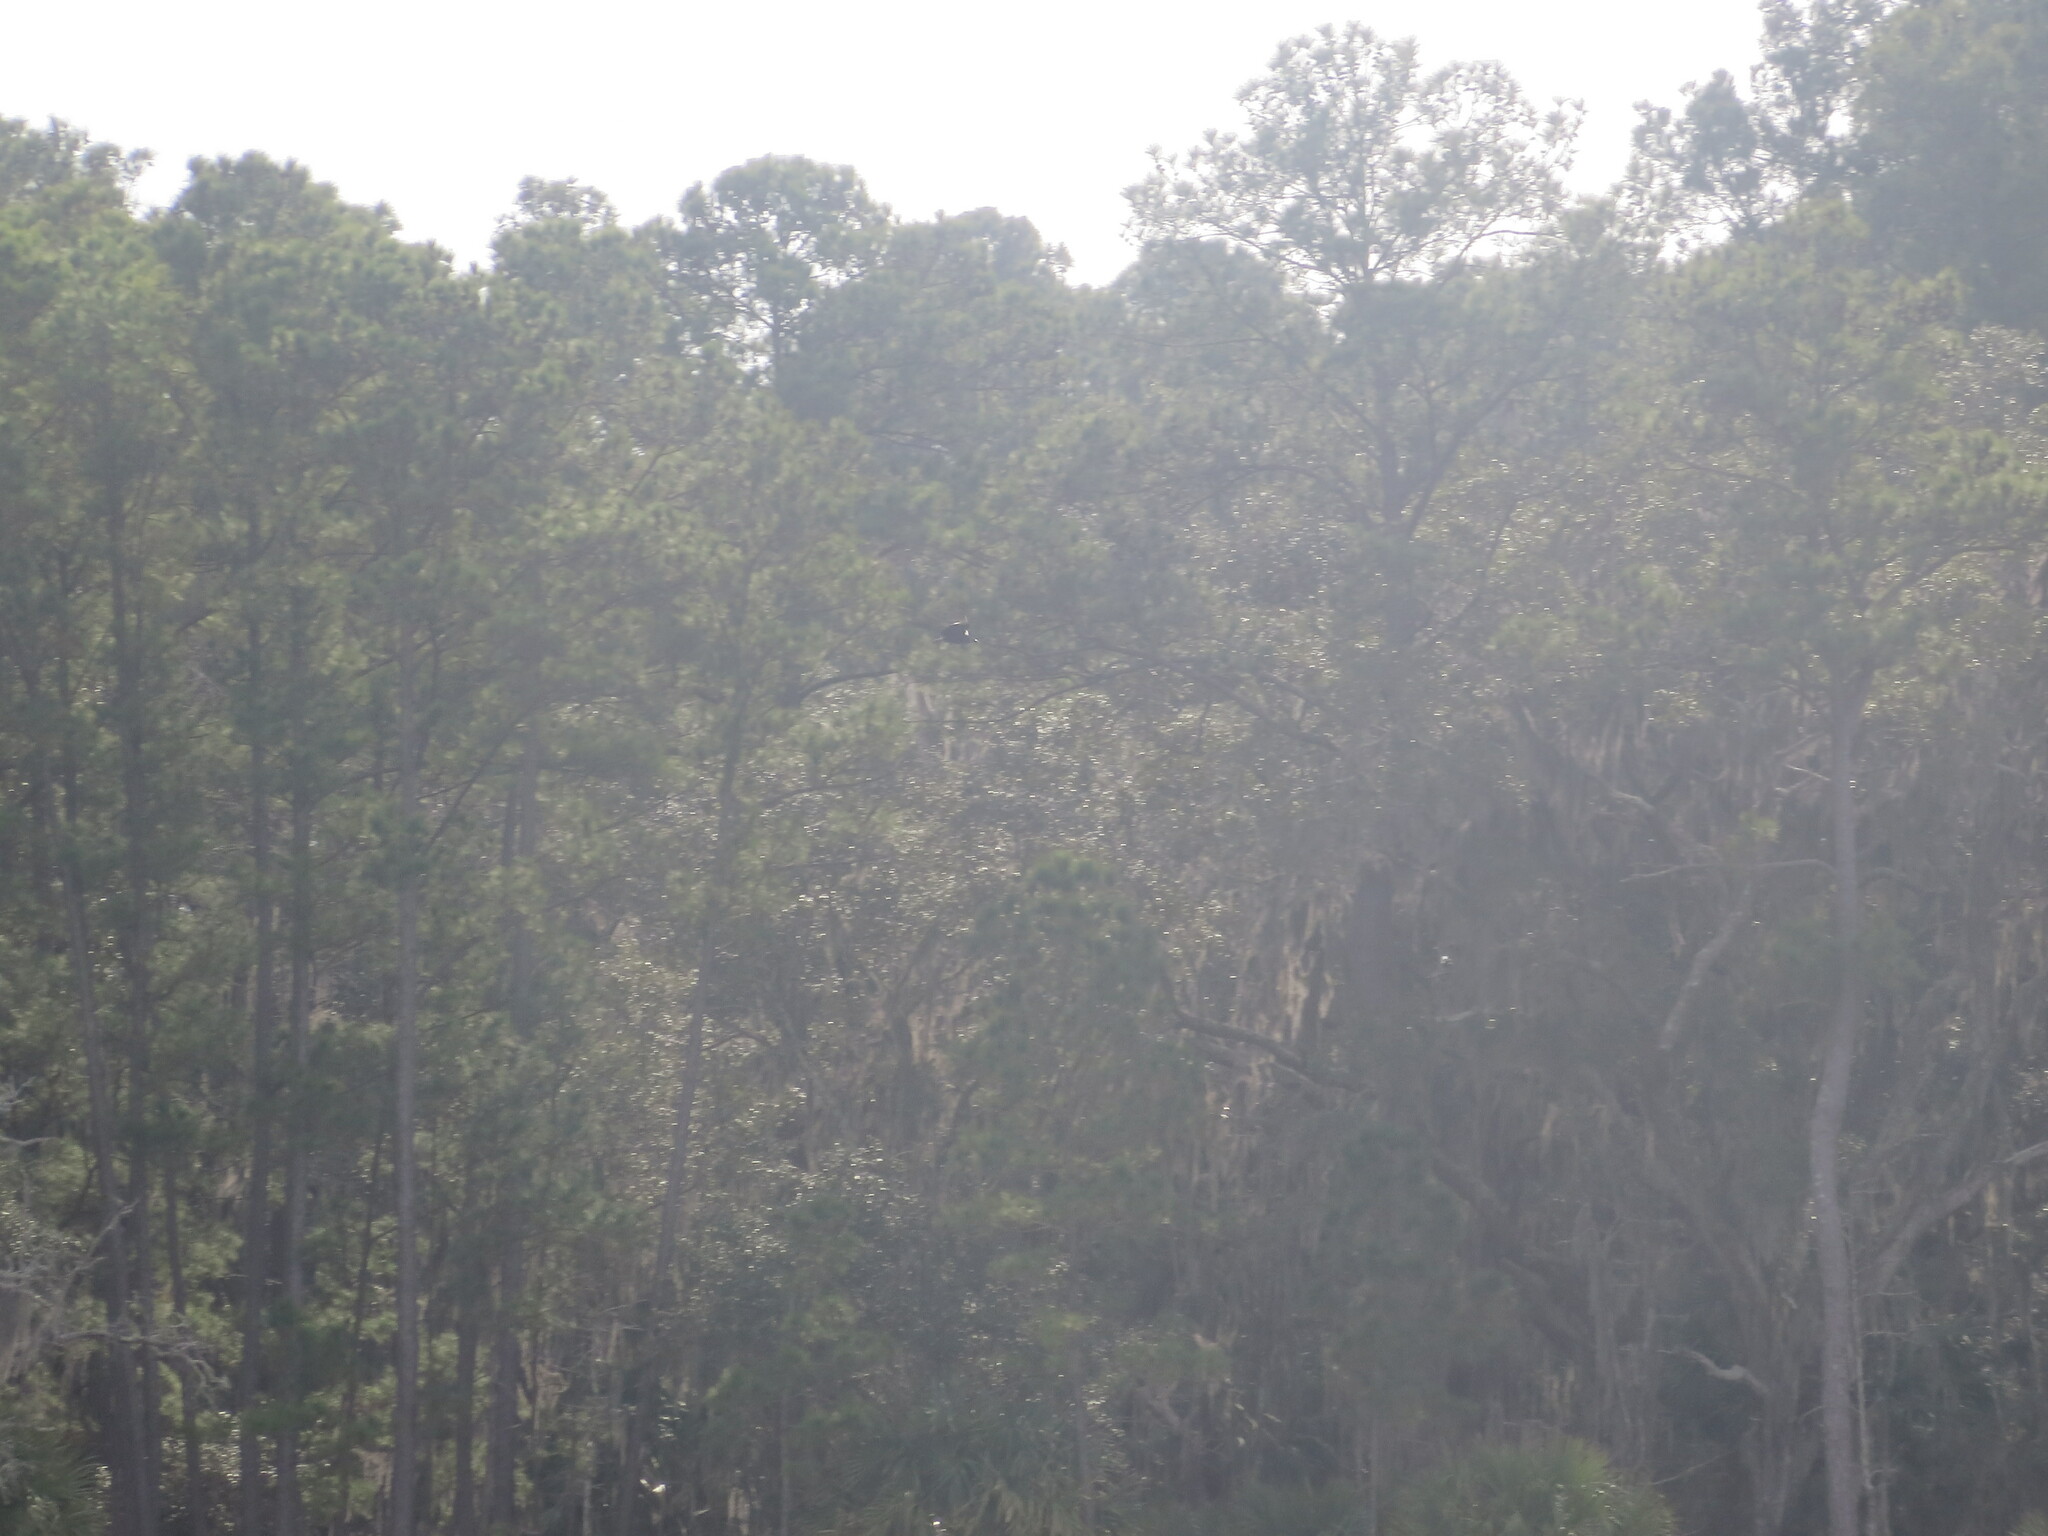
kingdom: Animalia
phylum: Chordata
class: Aves
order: Accipitriformes
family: Cathartidae
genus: Coragyps
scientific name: Coragyps atratus
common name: Black vulture
